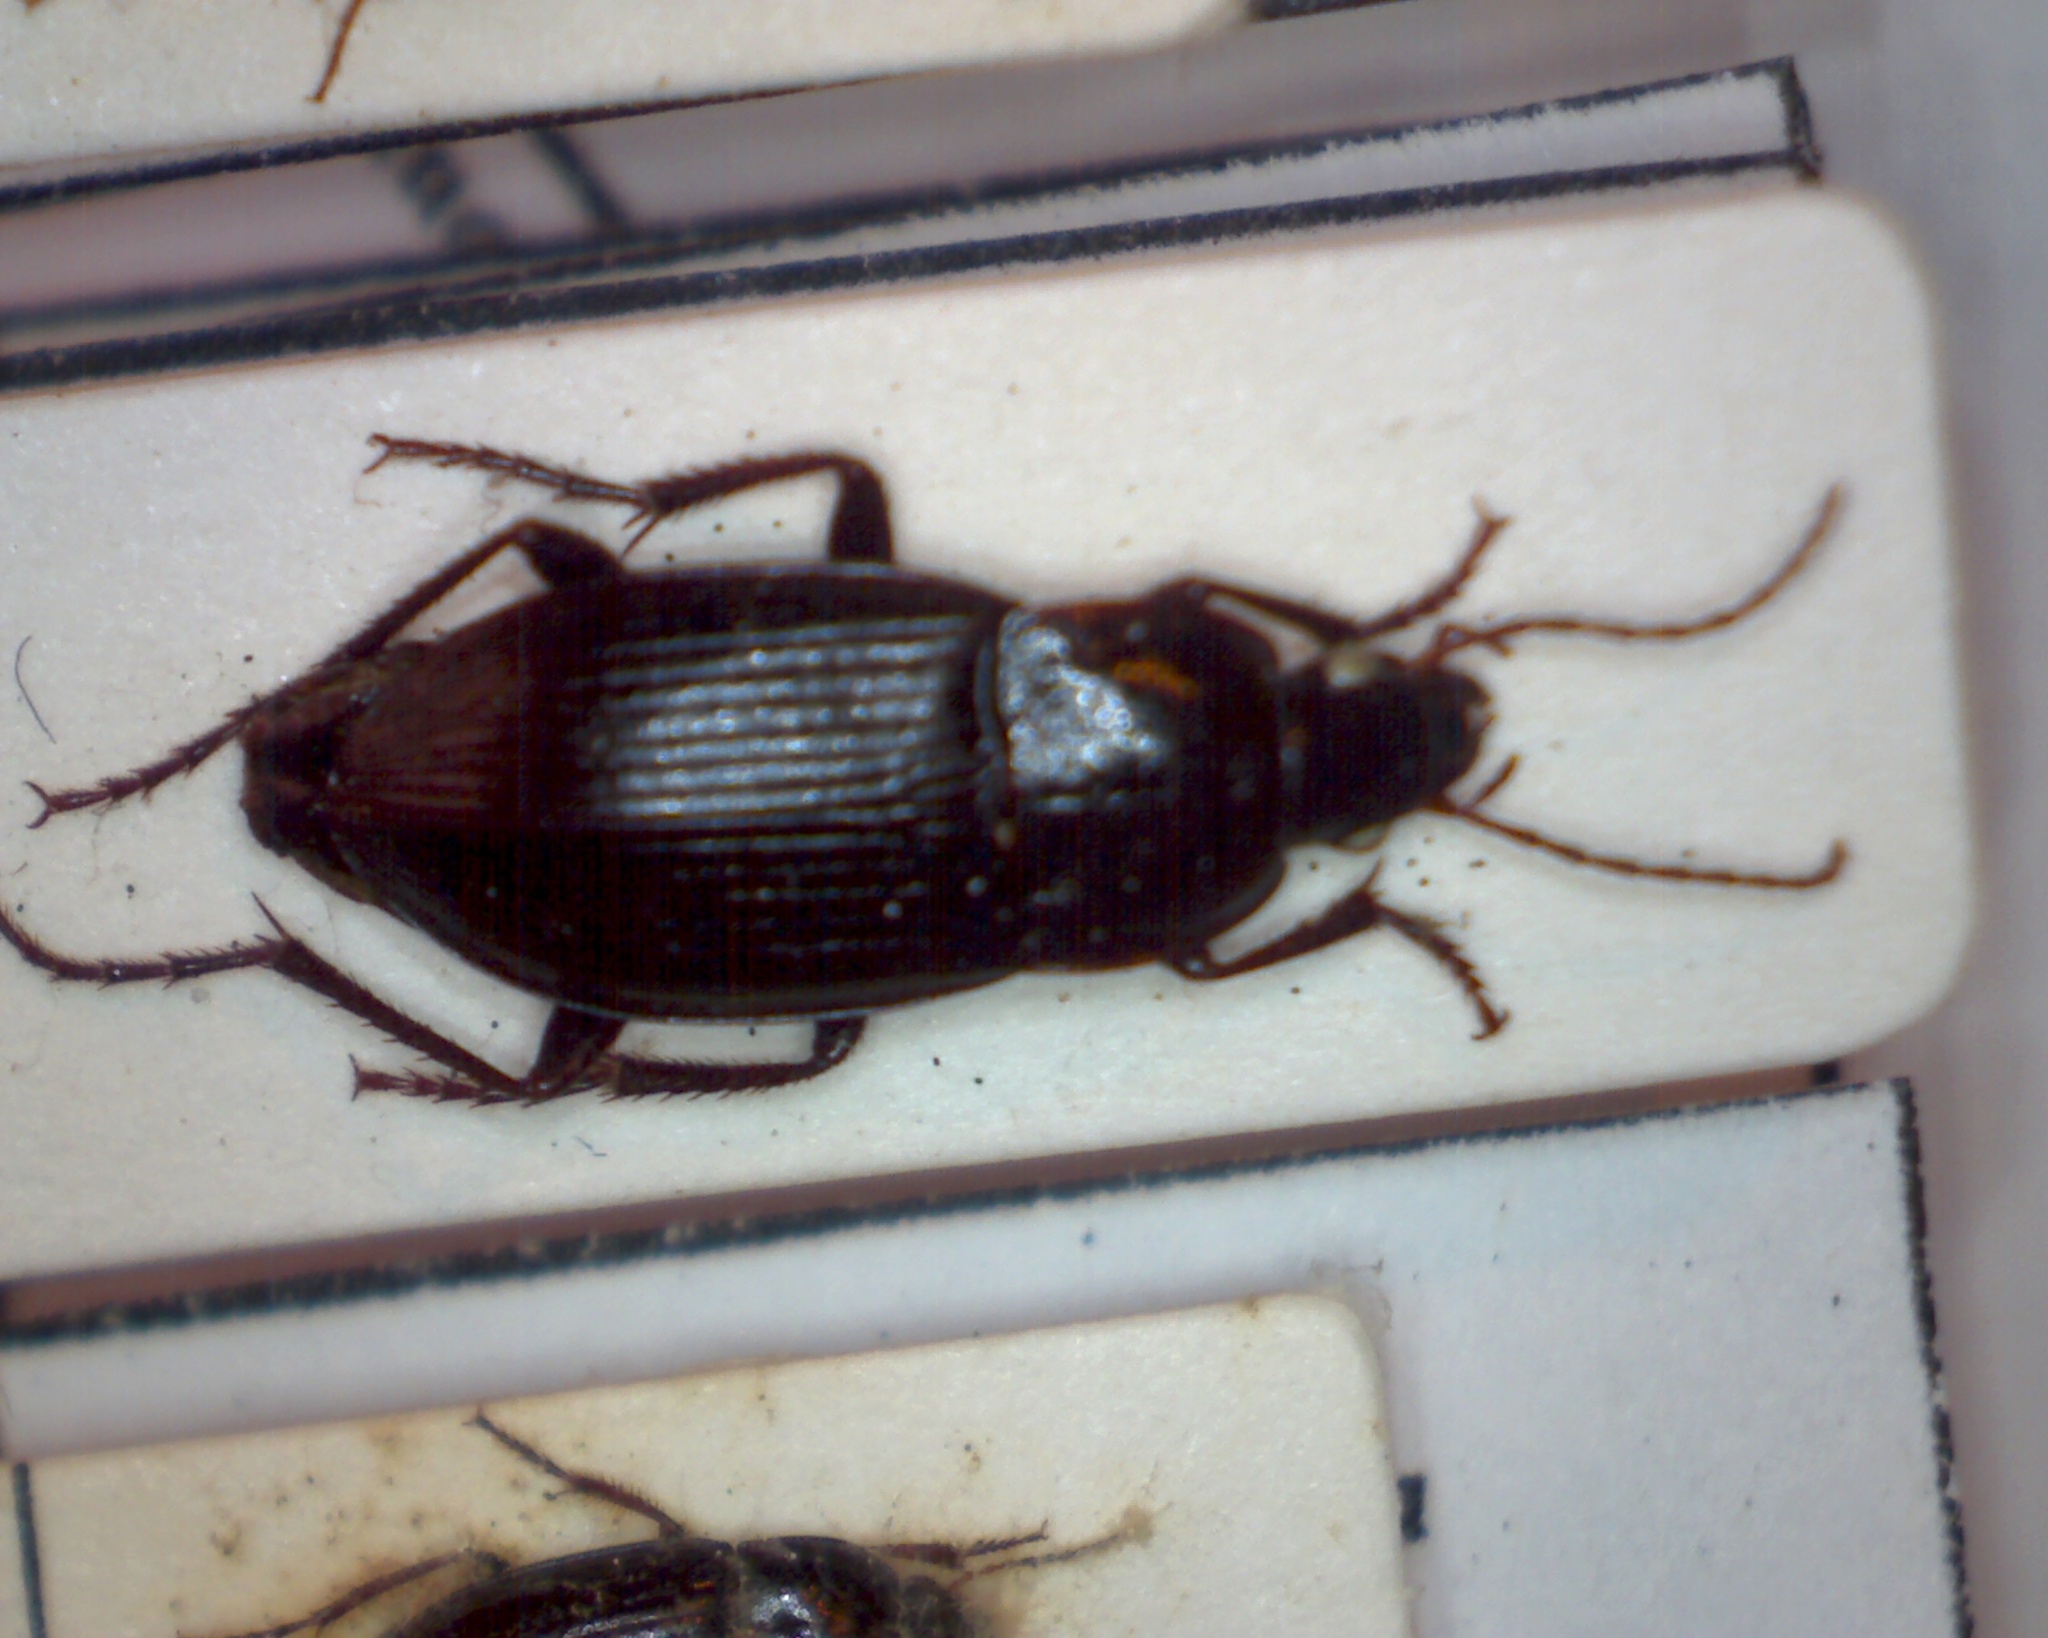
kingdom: Animalia
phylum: Arthropoda
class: Insecta
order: Coleoptera
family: Carabidae
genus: Calathus
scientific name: Calathus fuscipes
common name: Dark-footed harp ground beetle
